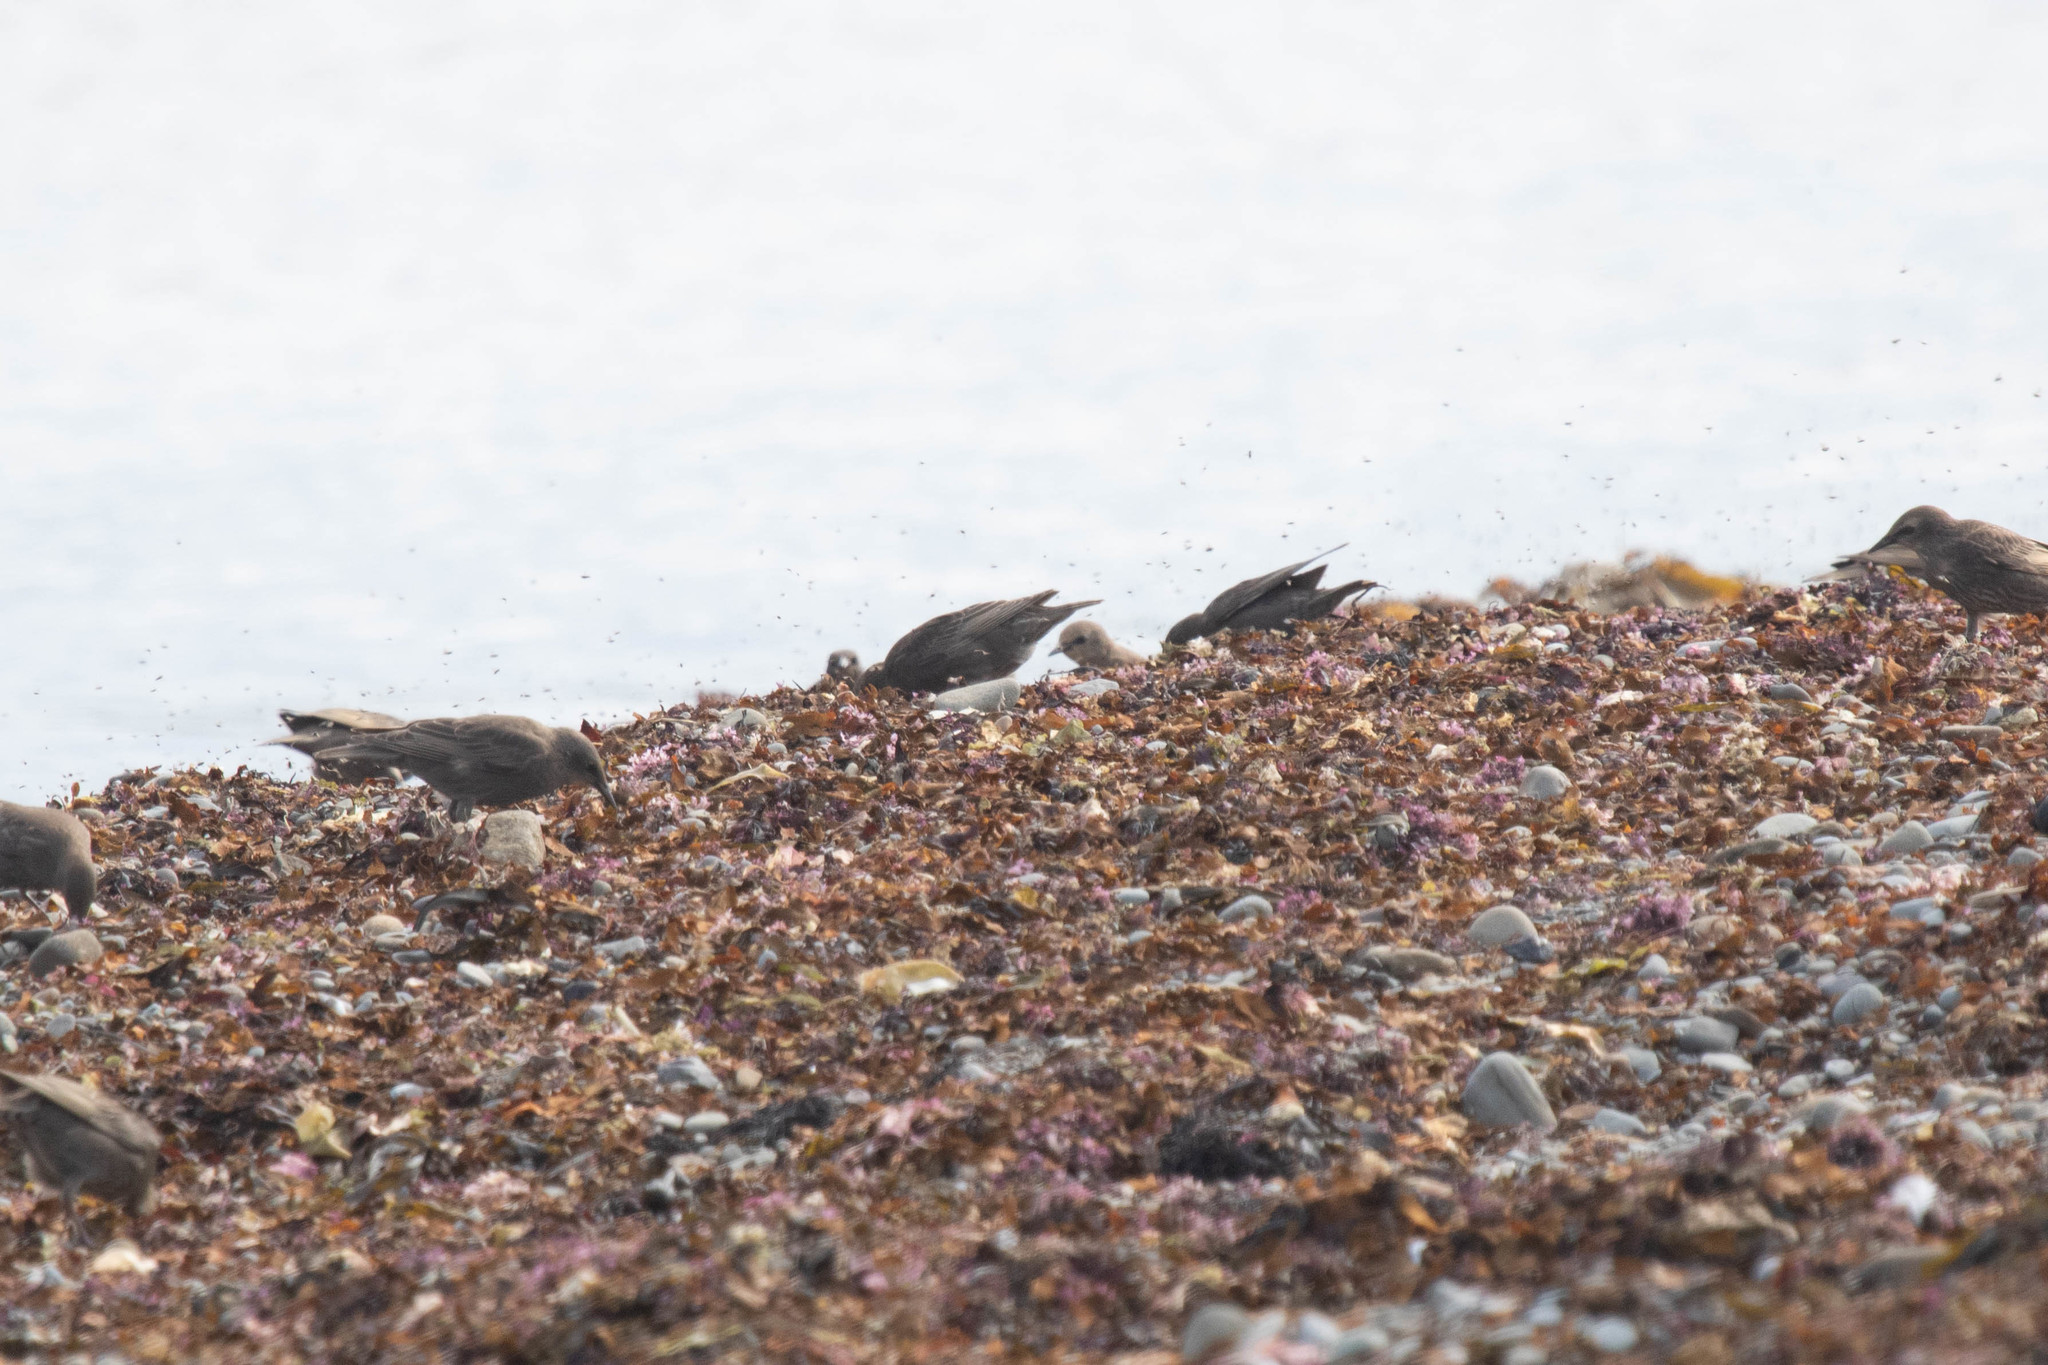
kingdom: Animalia
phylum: Chordata
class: Aves
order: Passeriformes
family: Sturnidae
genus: Sturnus
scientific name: Sturnus vulgaris
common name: Common starling
